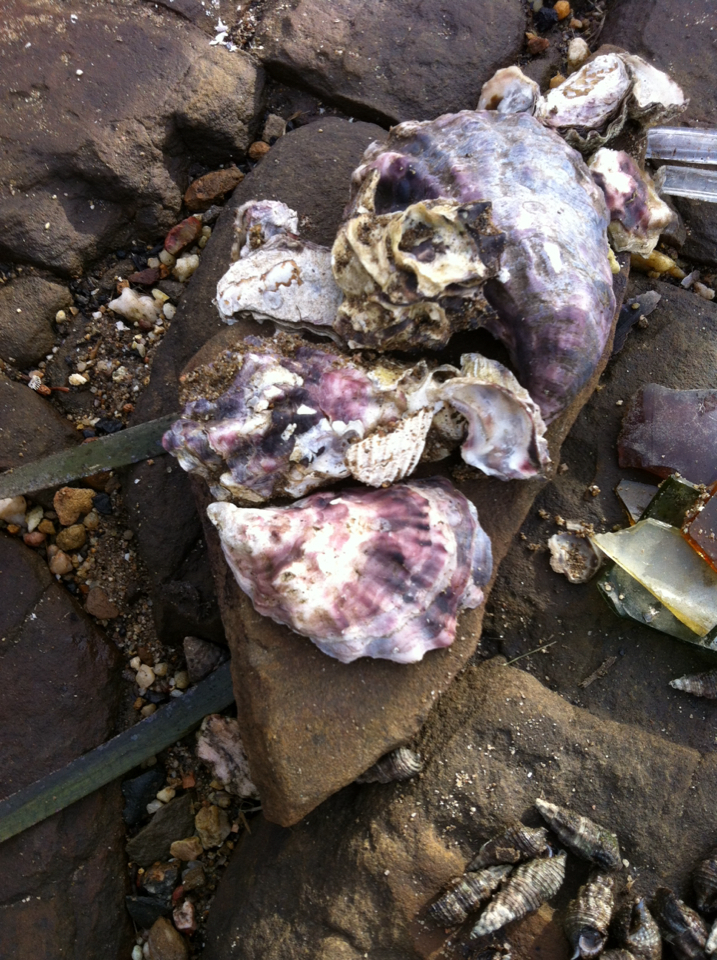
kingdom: Animalia
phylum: Mollusca
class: Bivalvia
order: Ostreida
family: Ostreidae
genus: Saccostrea
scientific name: Saccostrea glomerata
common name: Sydney cupped oyster
